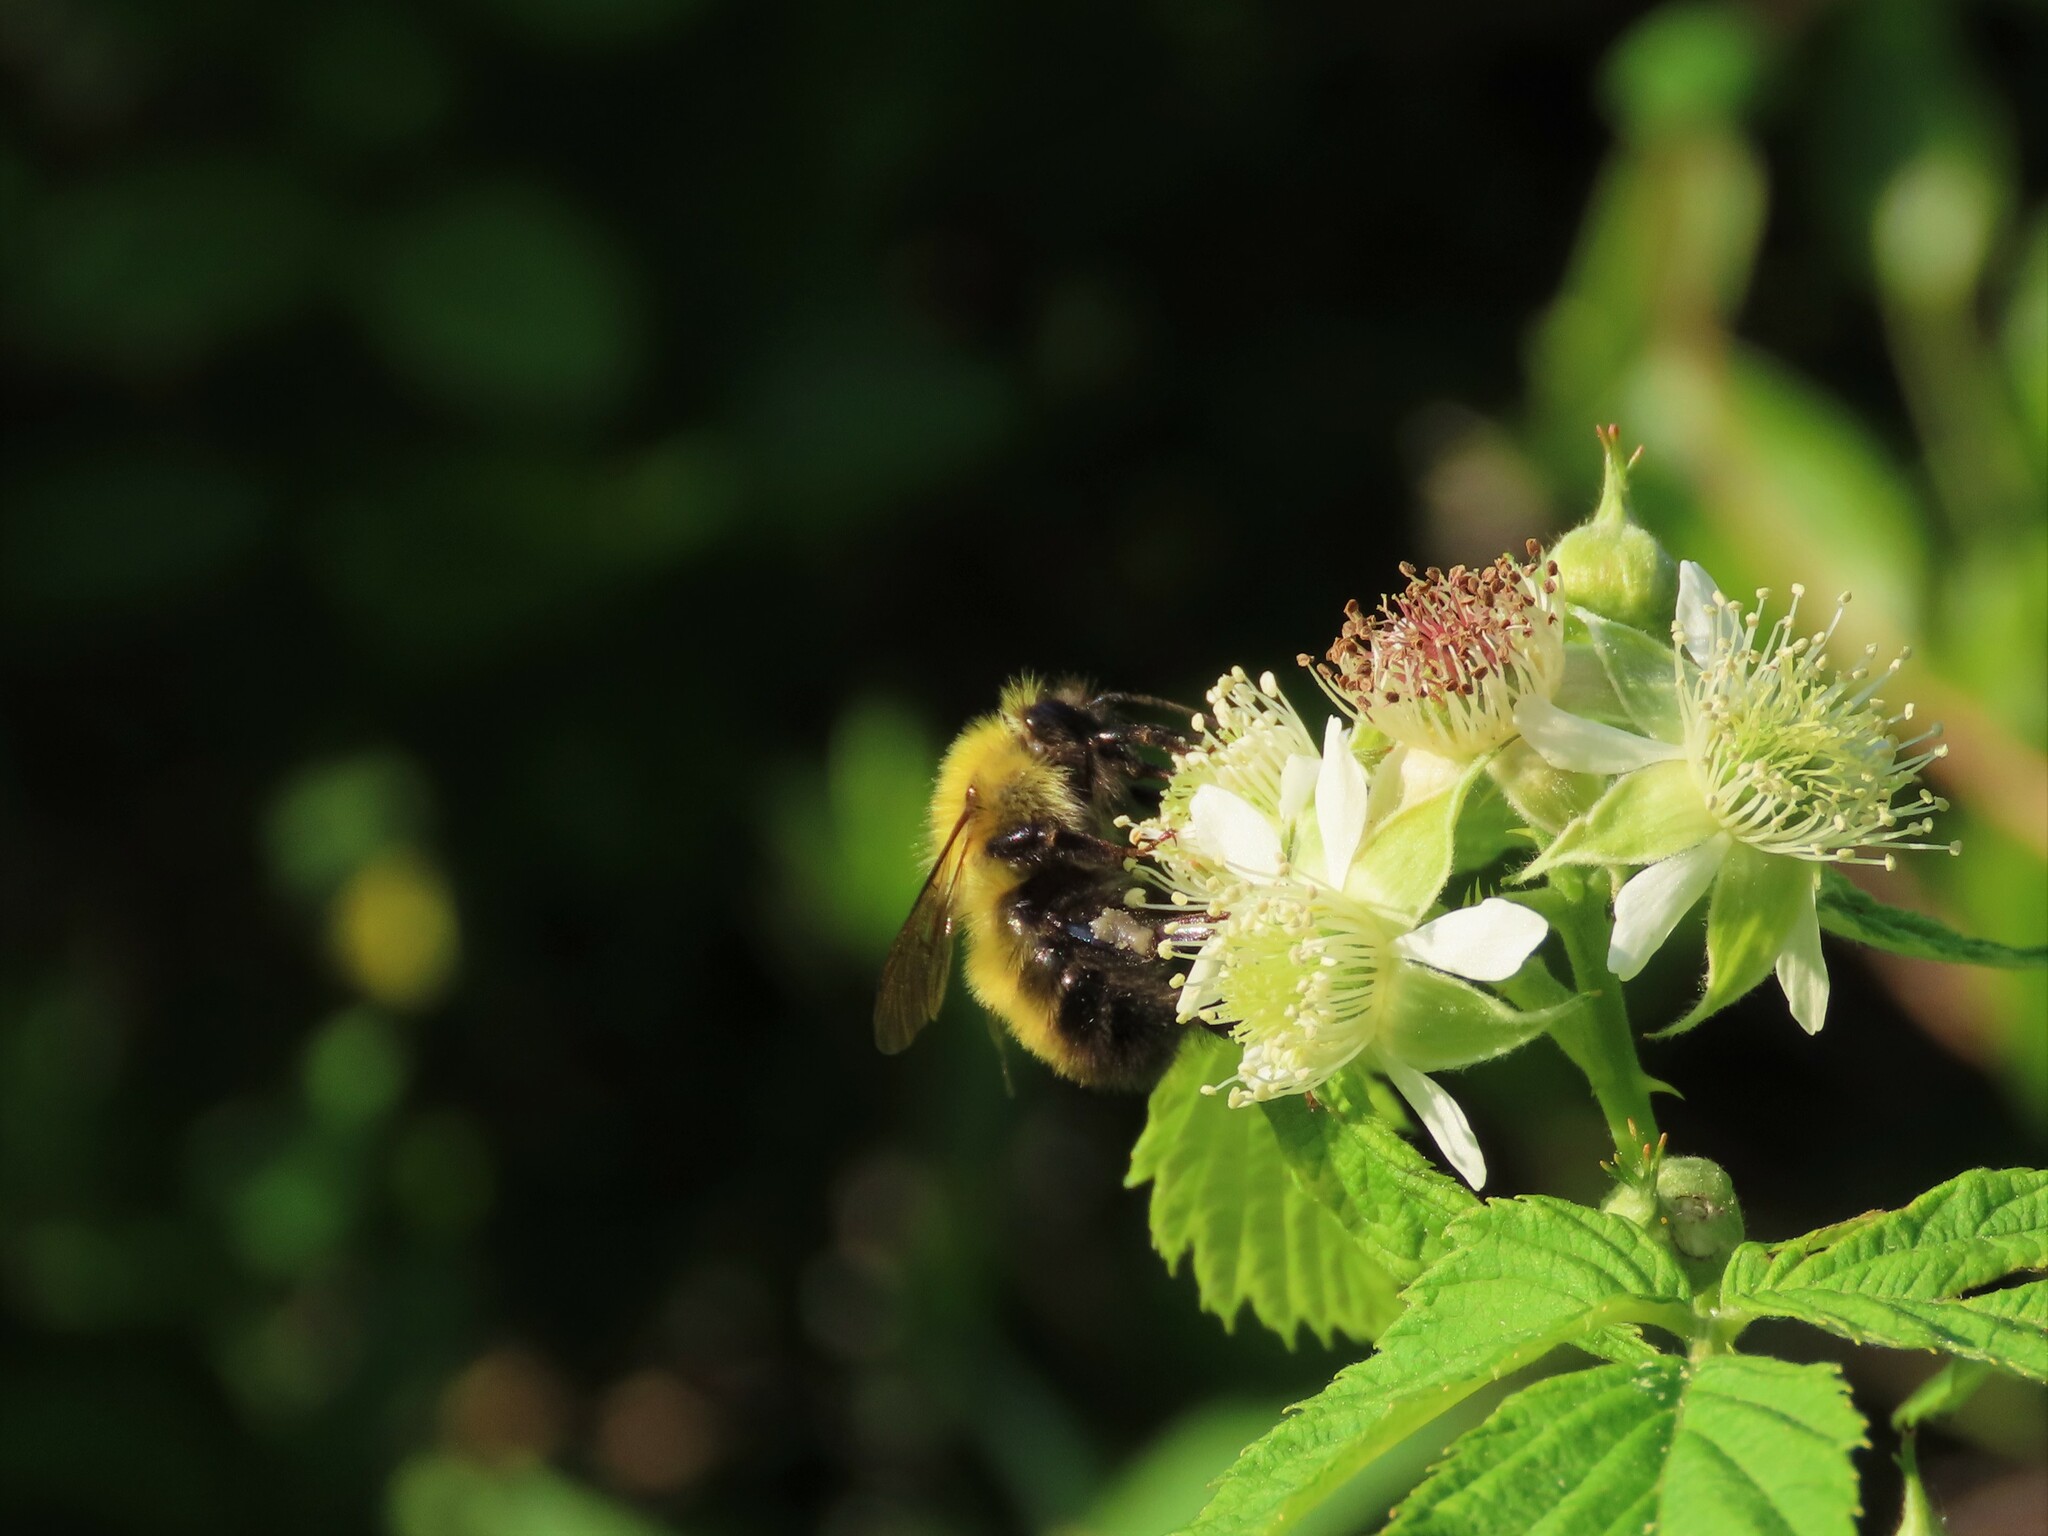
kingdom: Animalia
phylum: Arthropoda
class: Insecta
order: Hymenoptera
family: Apidae
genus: Bombus
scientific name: Bombus perplexus
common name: Confusing bumble bee
